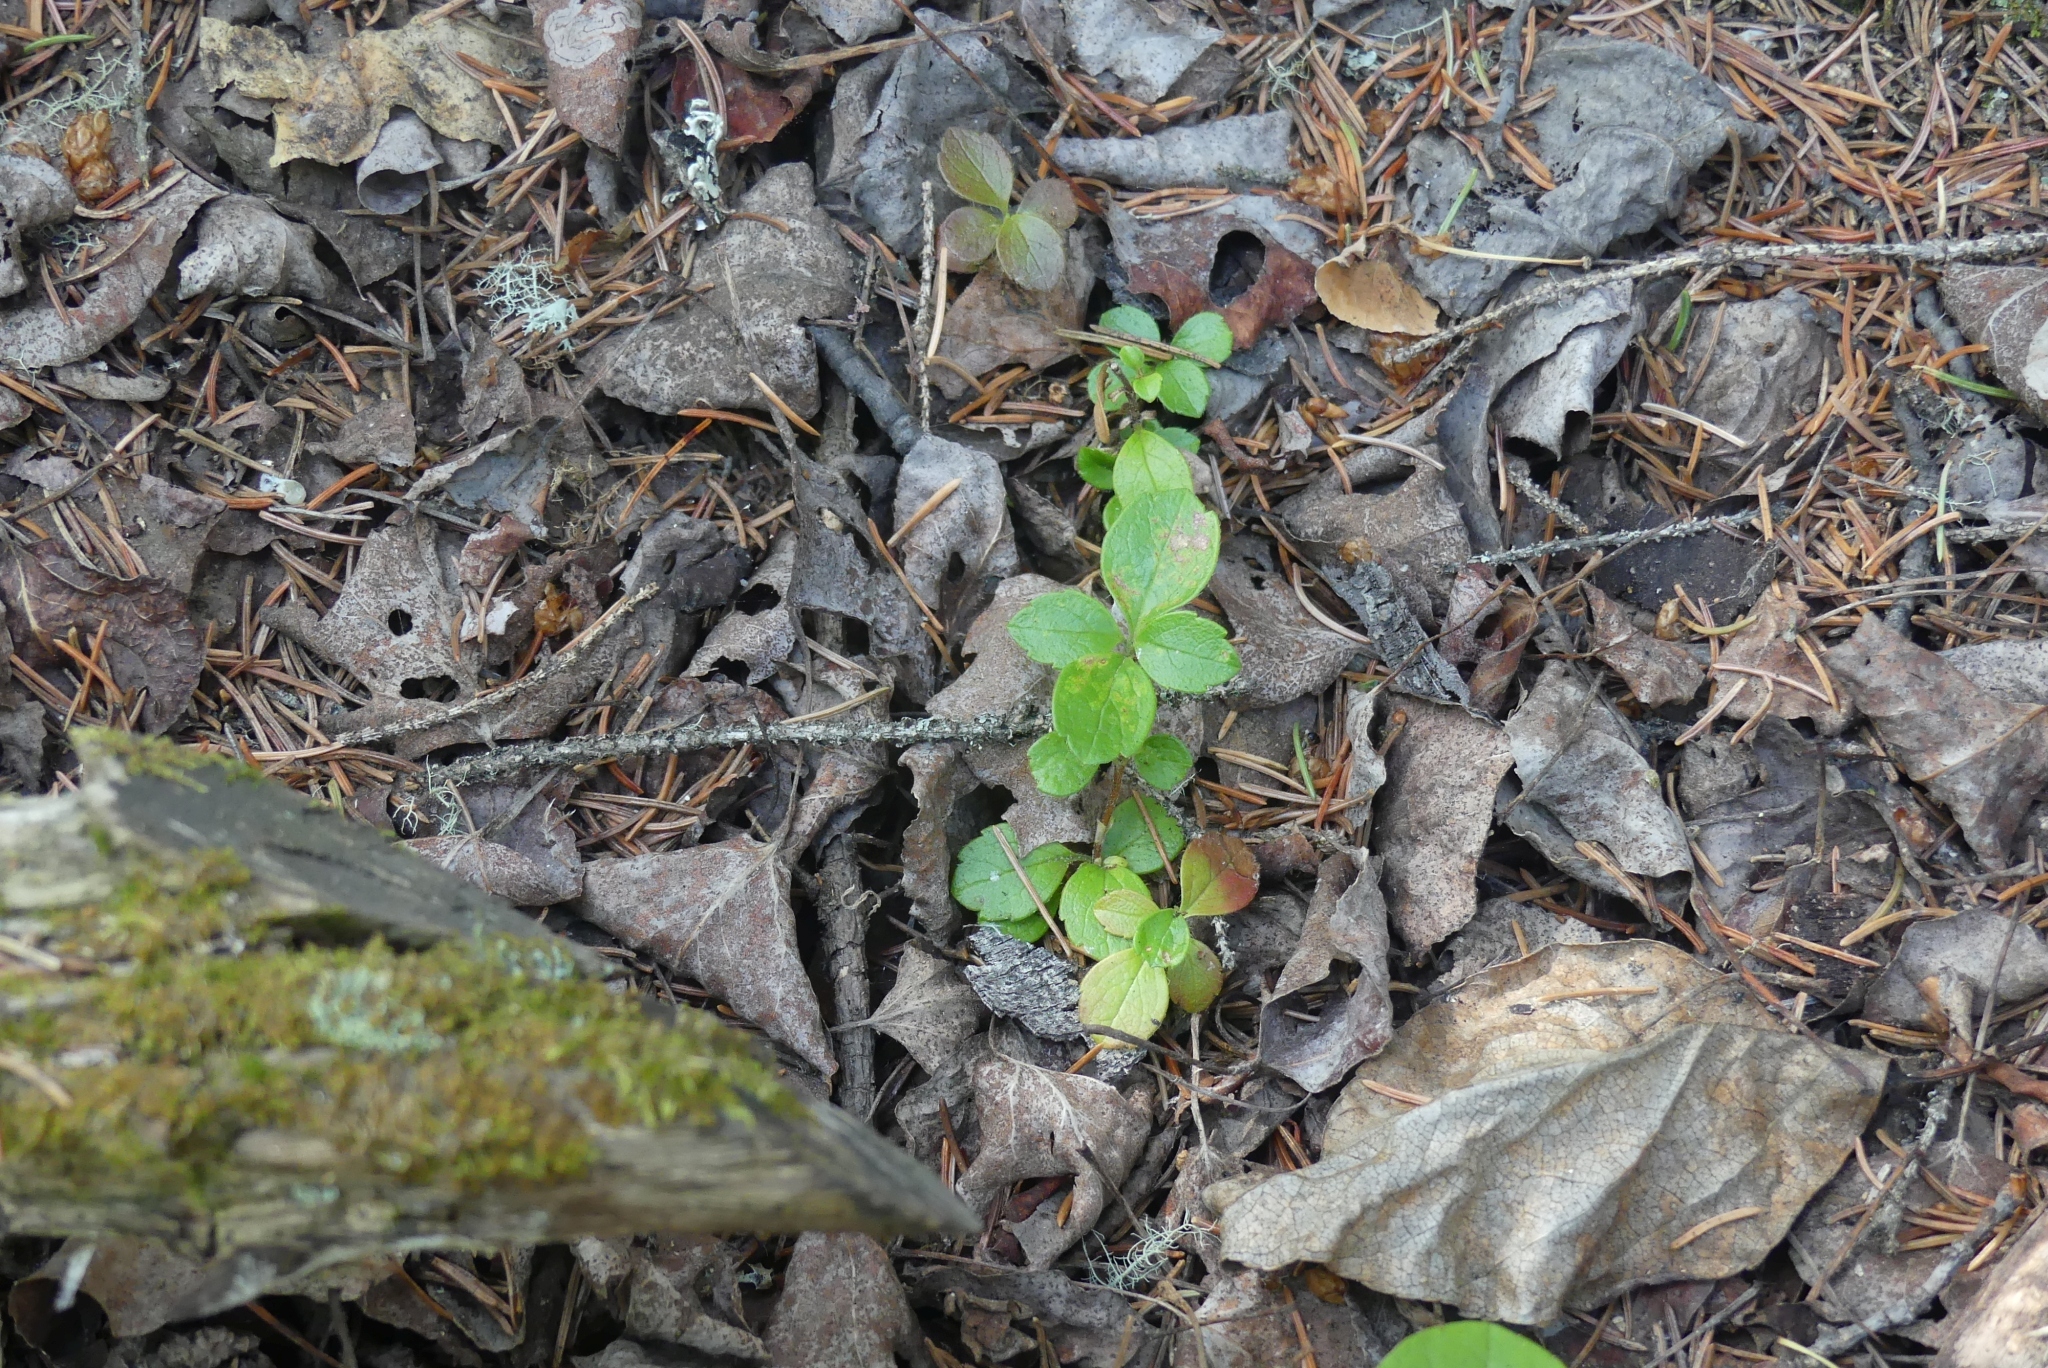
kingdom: Plantae
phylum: Tracheophyta
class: Magnoliopsida
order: Dipsacales
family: Caprifoliaceae
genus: Linnaea
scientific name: Linnaea borealis
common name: Twinflower
